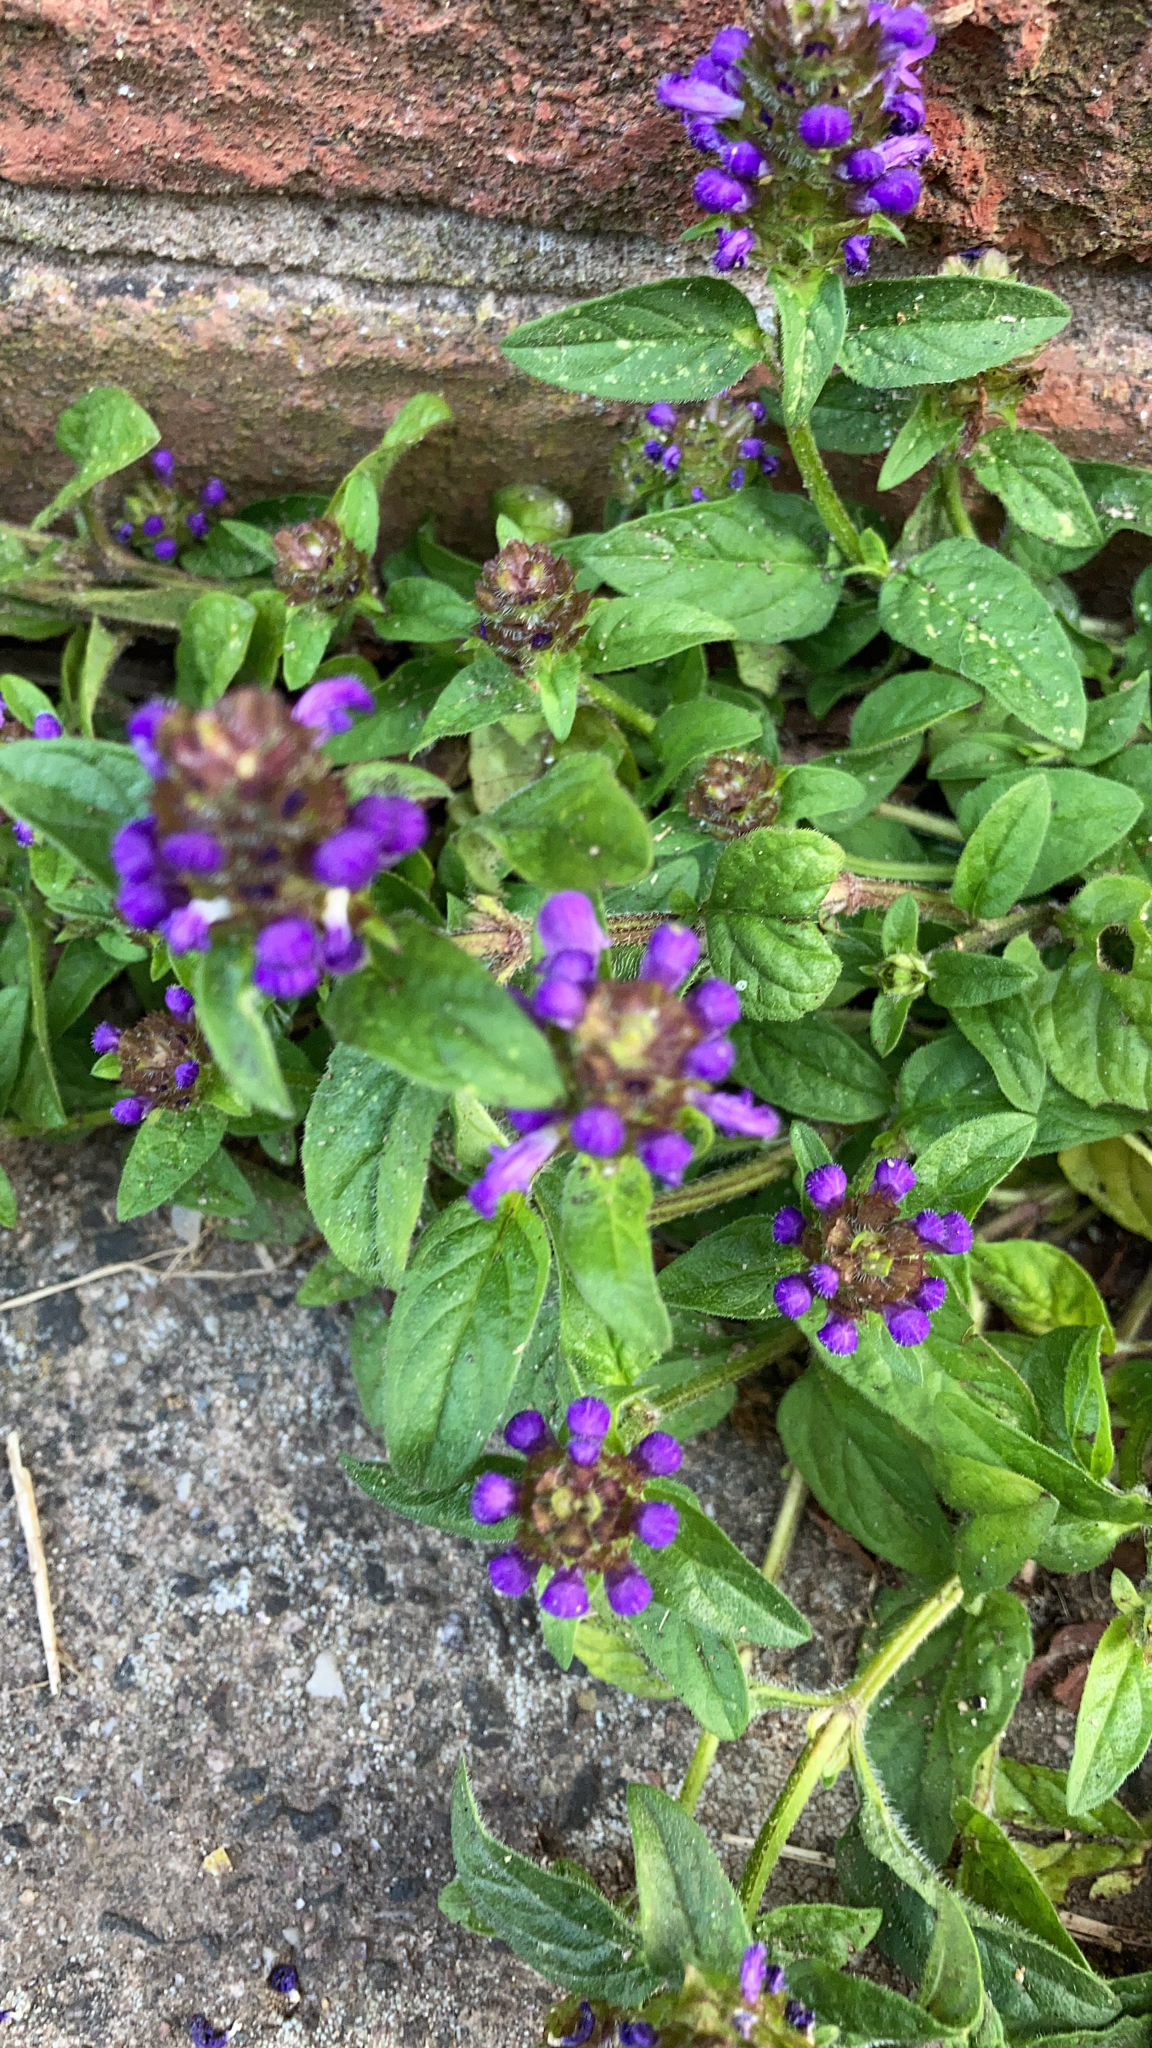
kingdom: Plantae
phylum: Tracheophyta
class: Magnoliopsida
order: Lamiales
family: Lamiaceae
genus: Prunella
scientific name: Prunella vulgaris
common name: Heal-all
